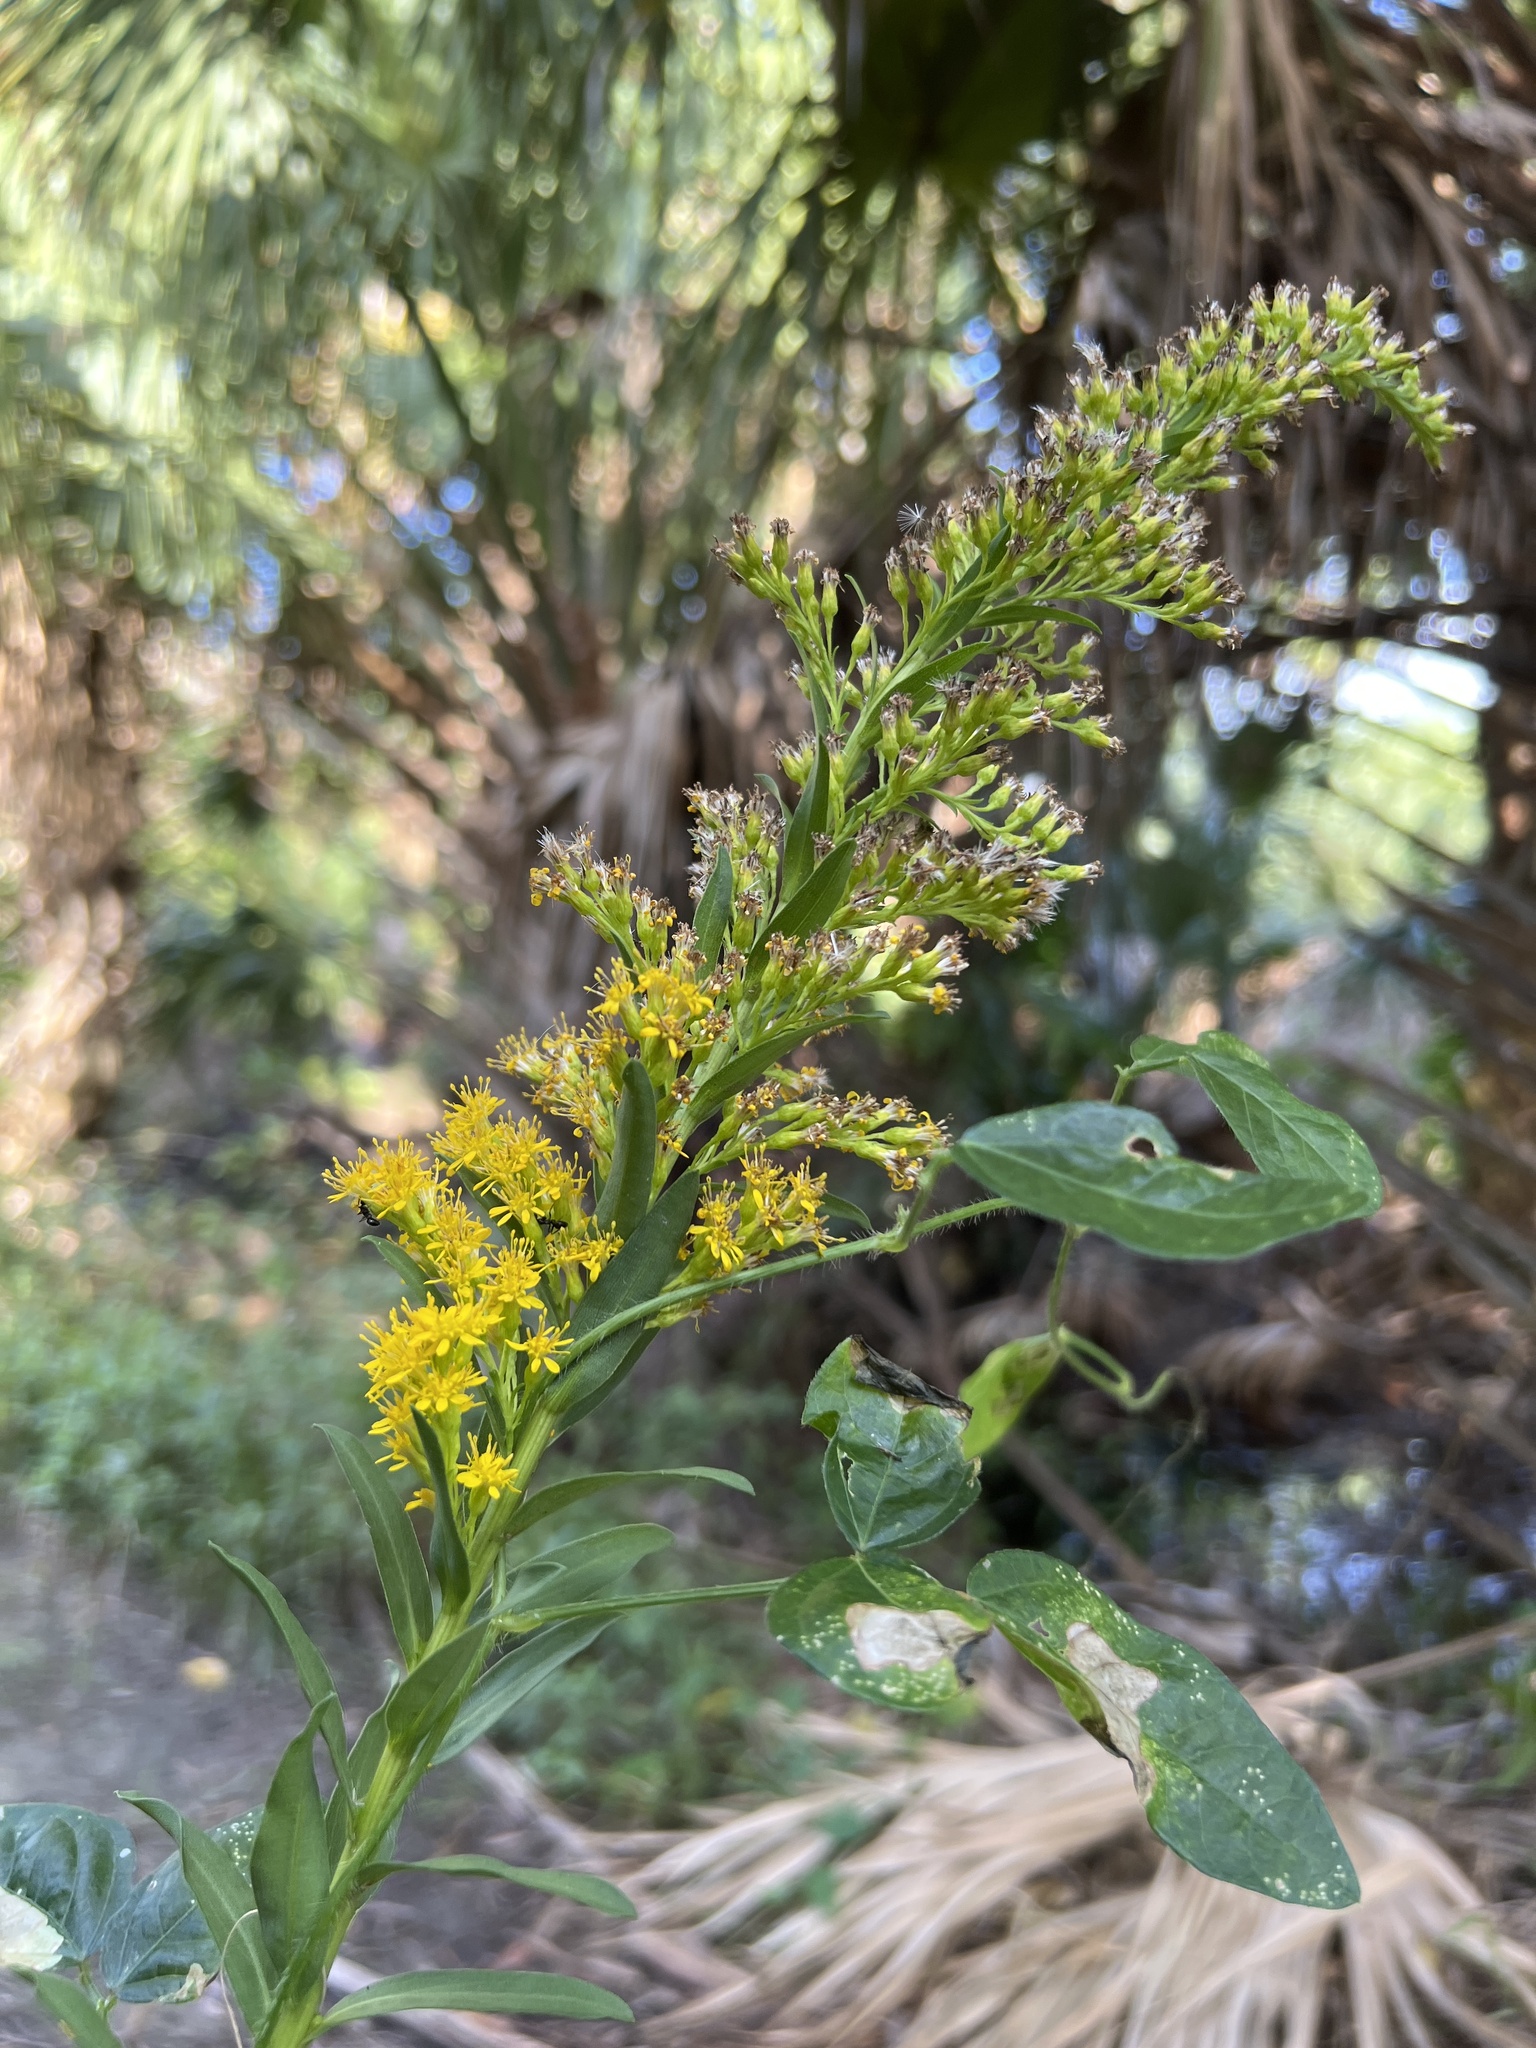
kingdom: Plantae
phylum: Tracheophyta
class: Magnoliopsida
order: Asterales
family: Asteraceae
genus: Solidago
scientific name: Solidago mexicana
